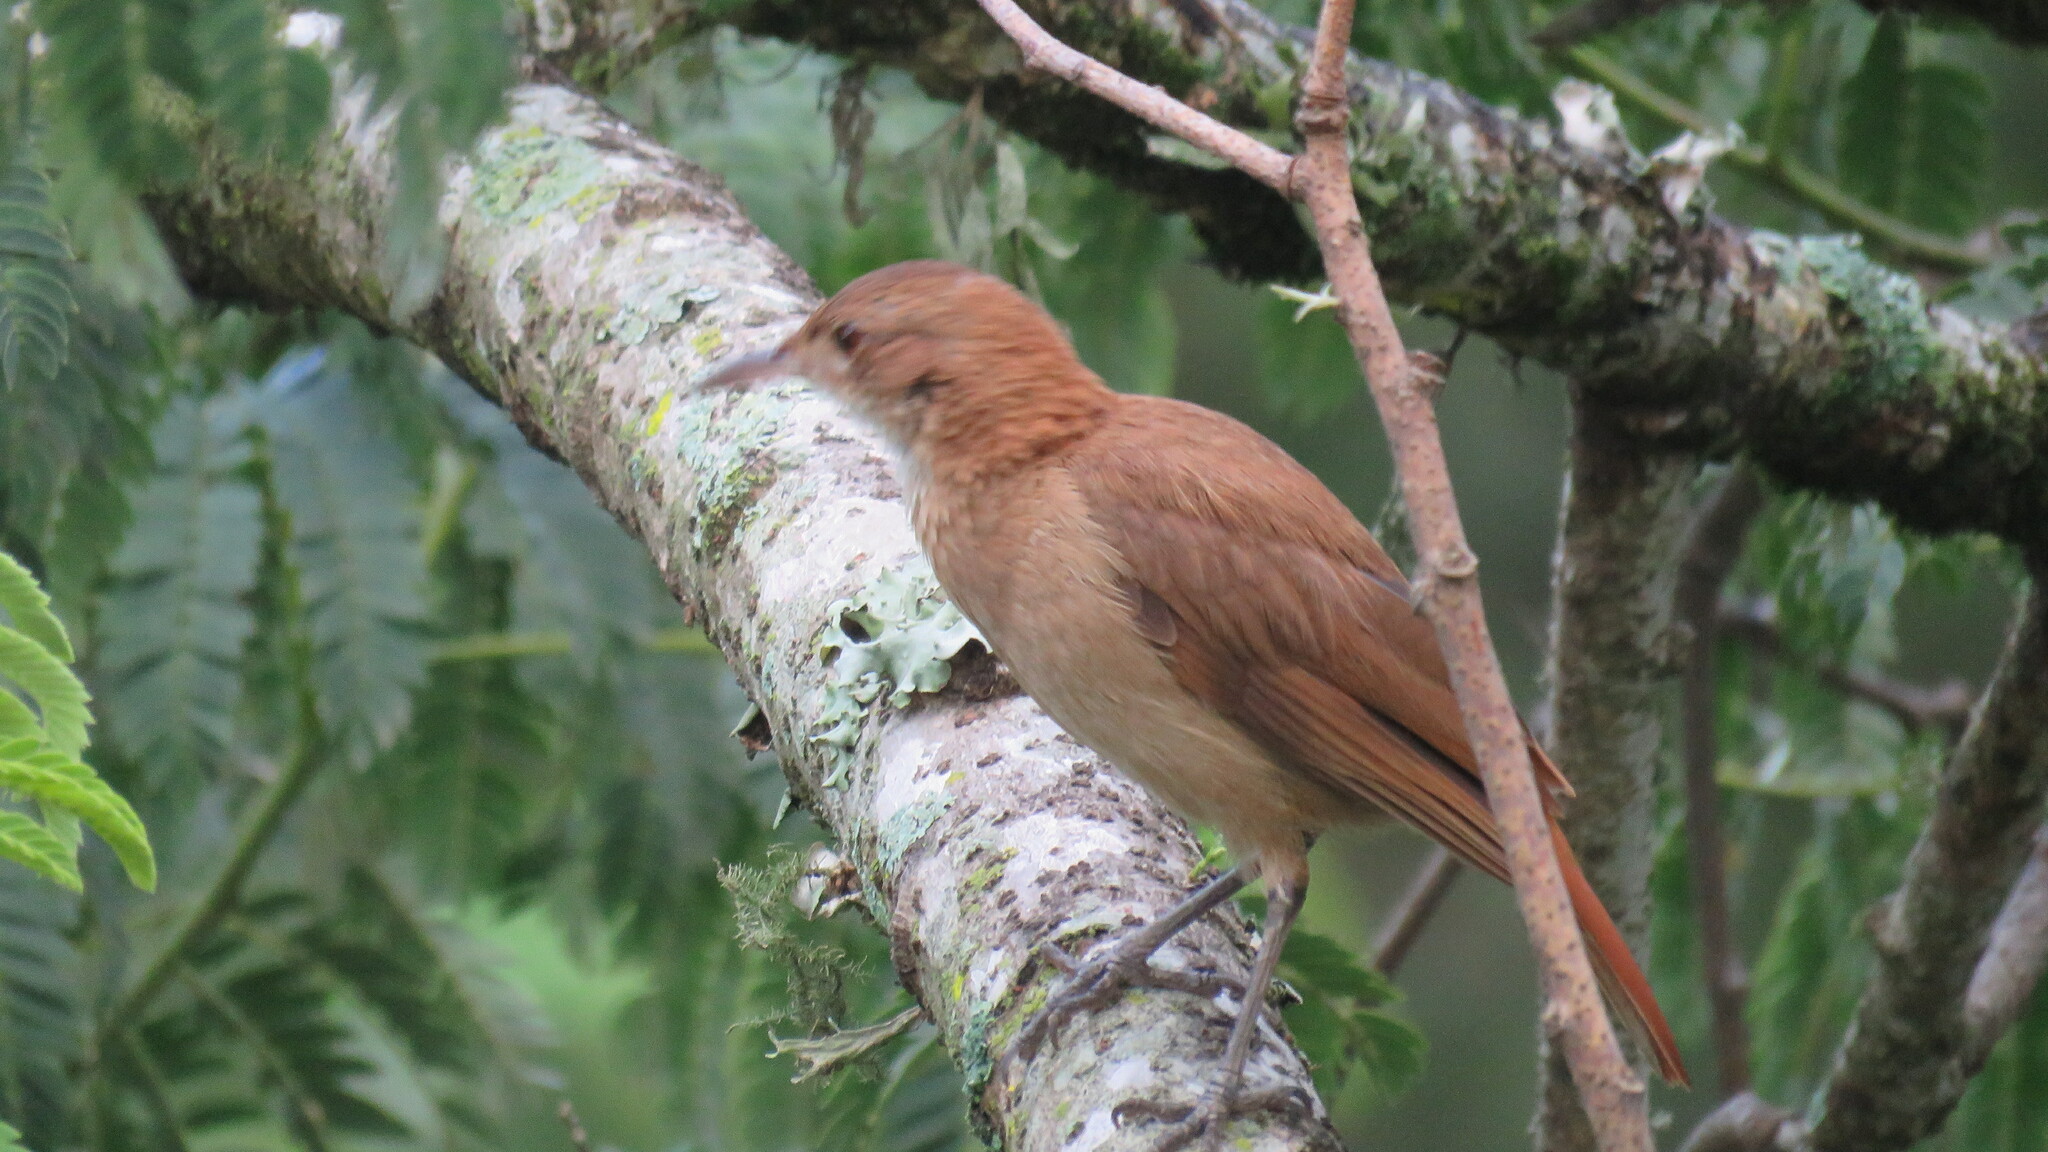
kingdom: Animalia
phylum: Chordata
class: Aves
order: Passeriformes
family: Furnariidae
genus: Furnarius
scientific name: Furnarius rufus
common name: Rufous hornero
